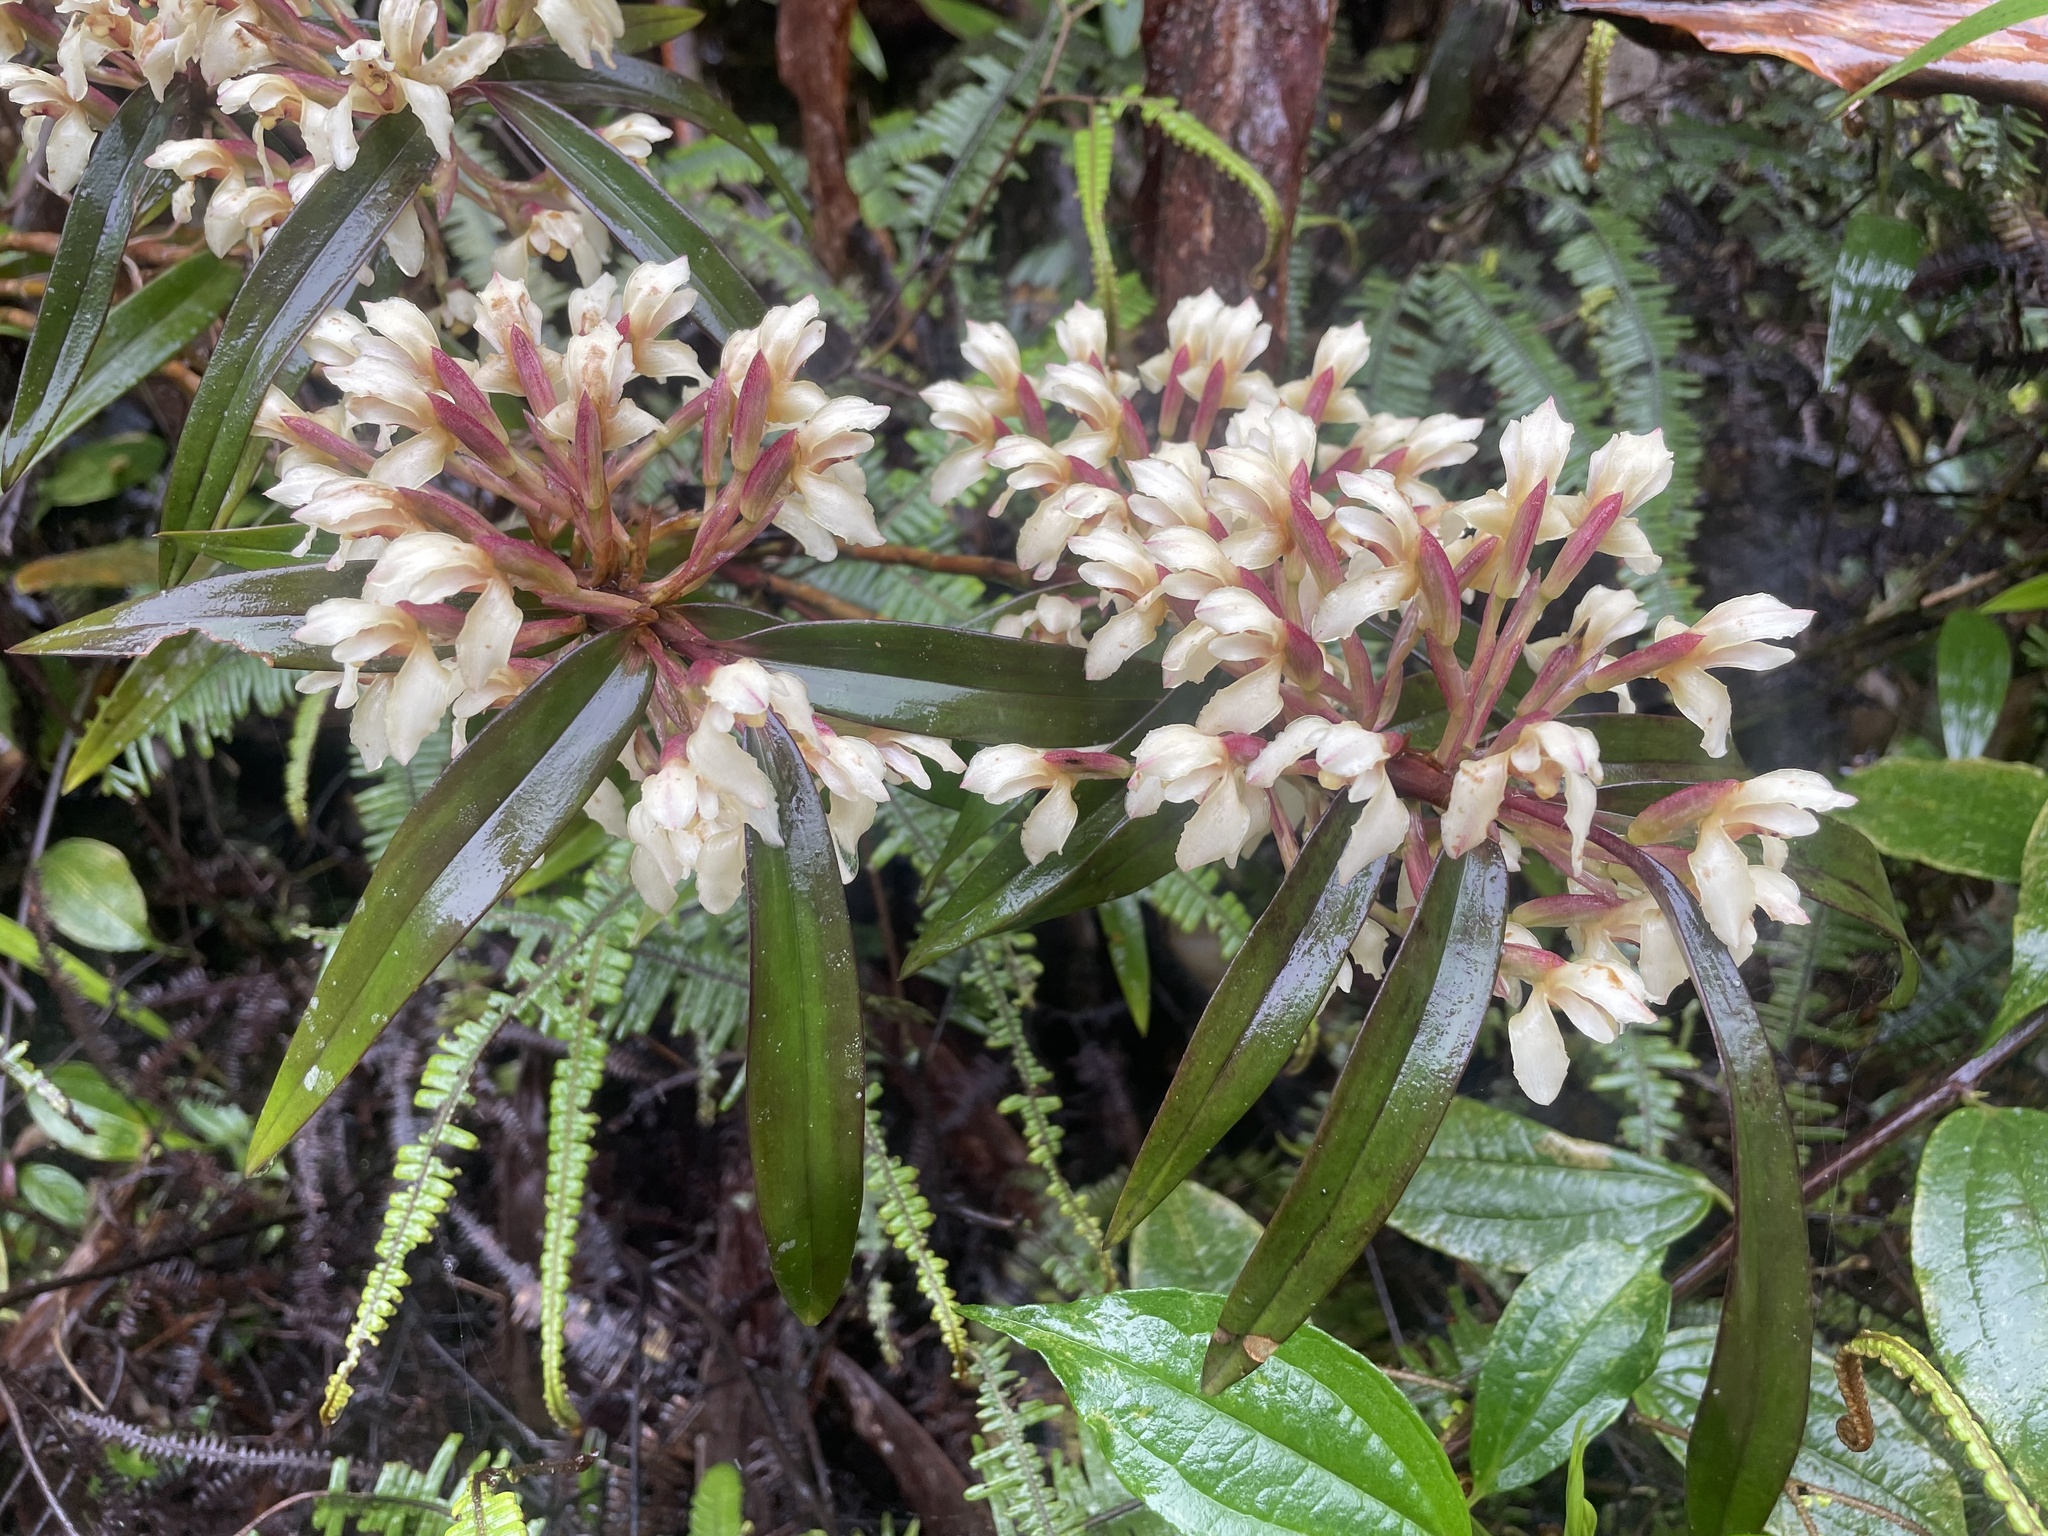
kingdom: Plantae
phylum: Tracheophyta
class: Liliopsida
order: Asparagales
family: Orchidaceae
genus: Maxillaria
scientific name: Maxillaria embreei
